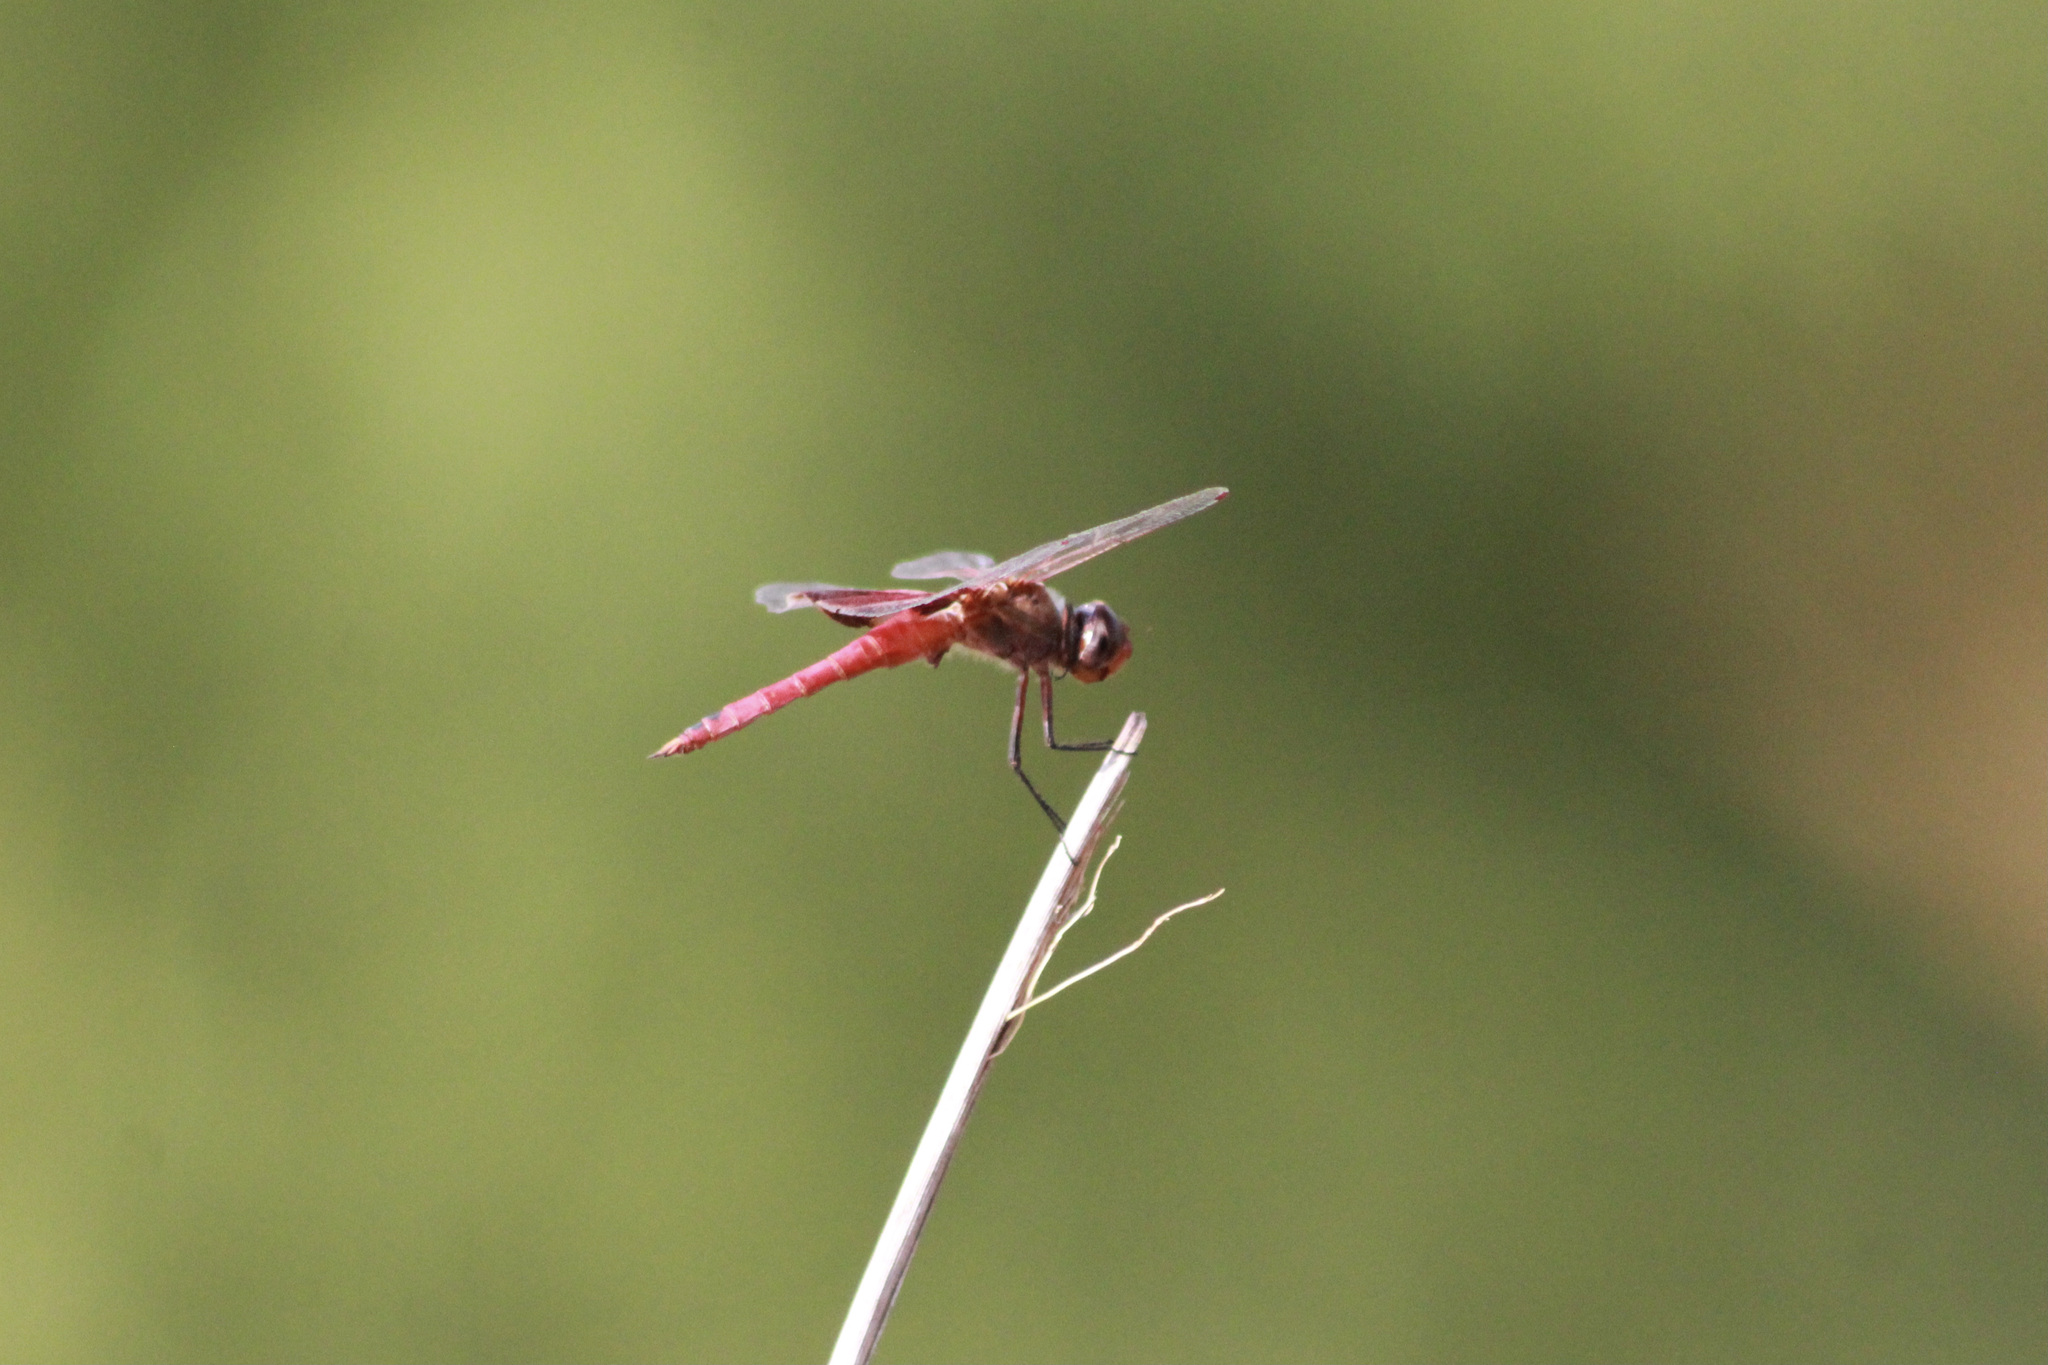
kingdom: Animalia
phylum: Arthropoda
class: Insecta
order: Odonata
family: Libellulidae
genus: Tramea
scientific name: Tramea onusta
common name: Red saddlebags
